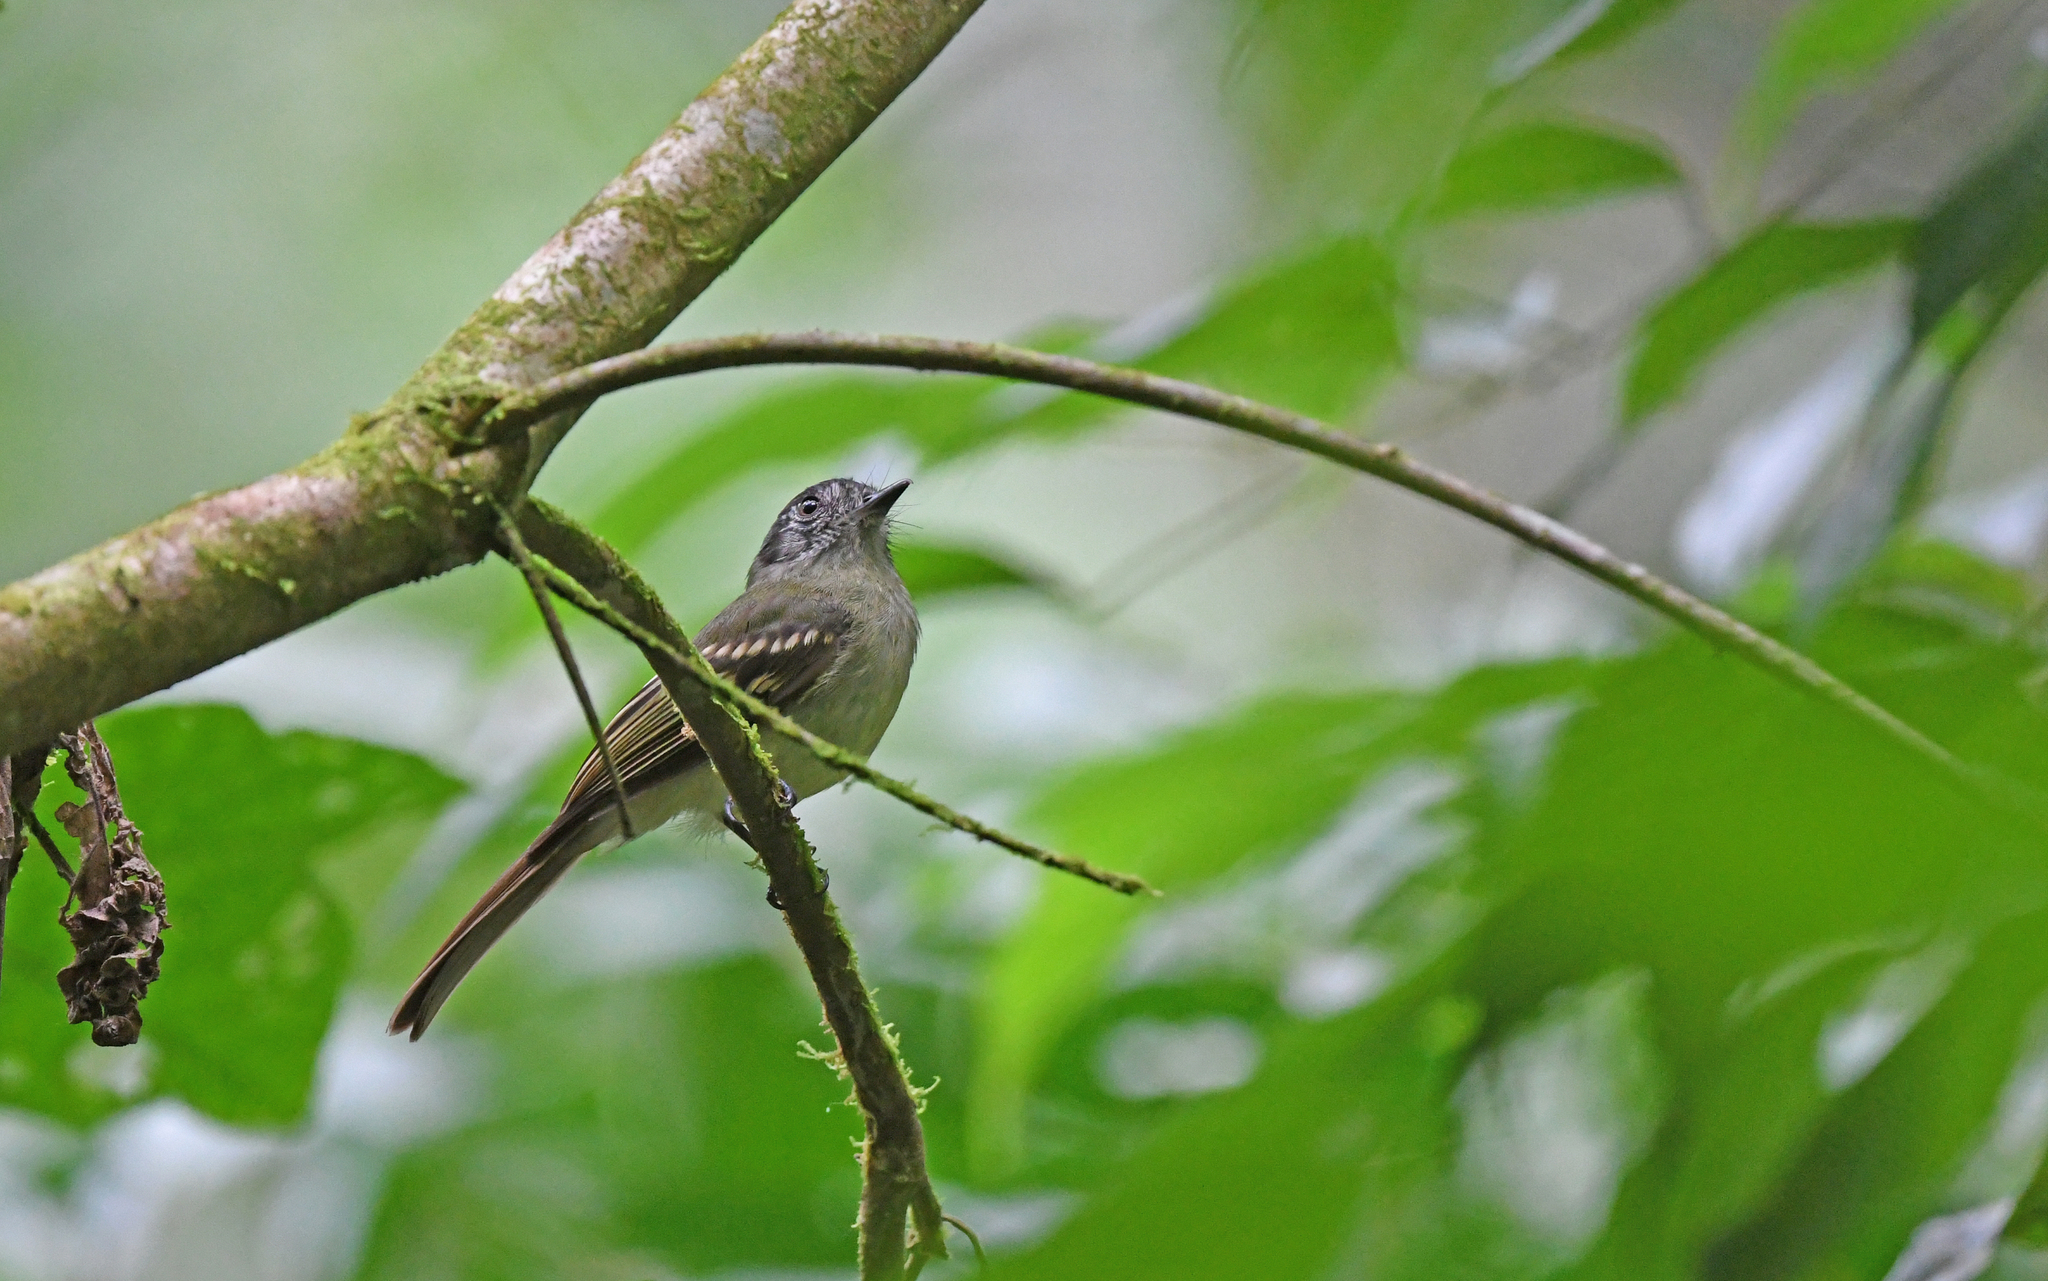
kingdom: Animalia
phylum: Chordata
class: Aves
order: Passeriformes
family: Tyrannidae
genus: Leptopogon
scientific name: Leptopogon superciliaris
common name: Slaty-capped flycatcher
